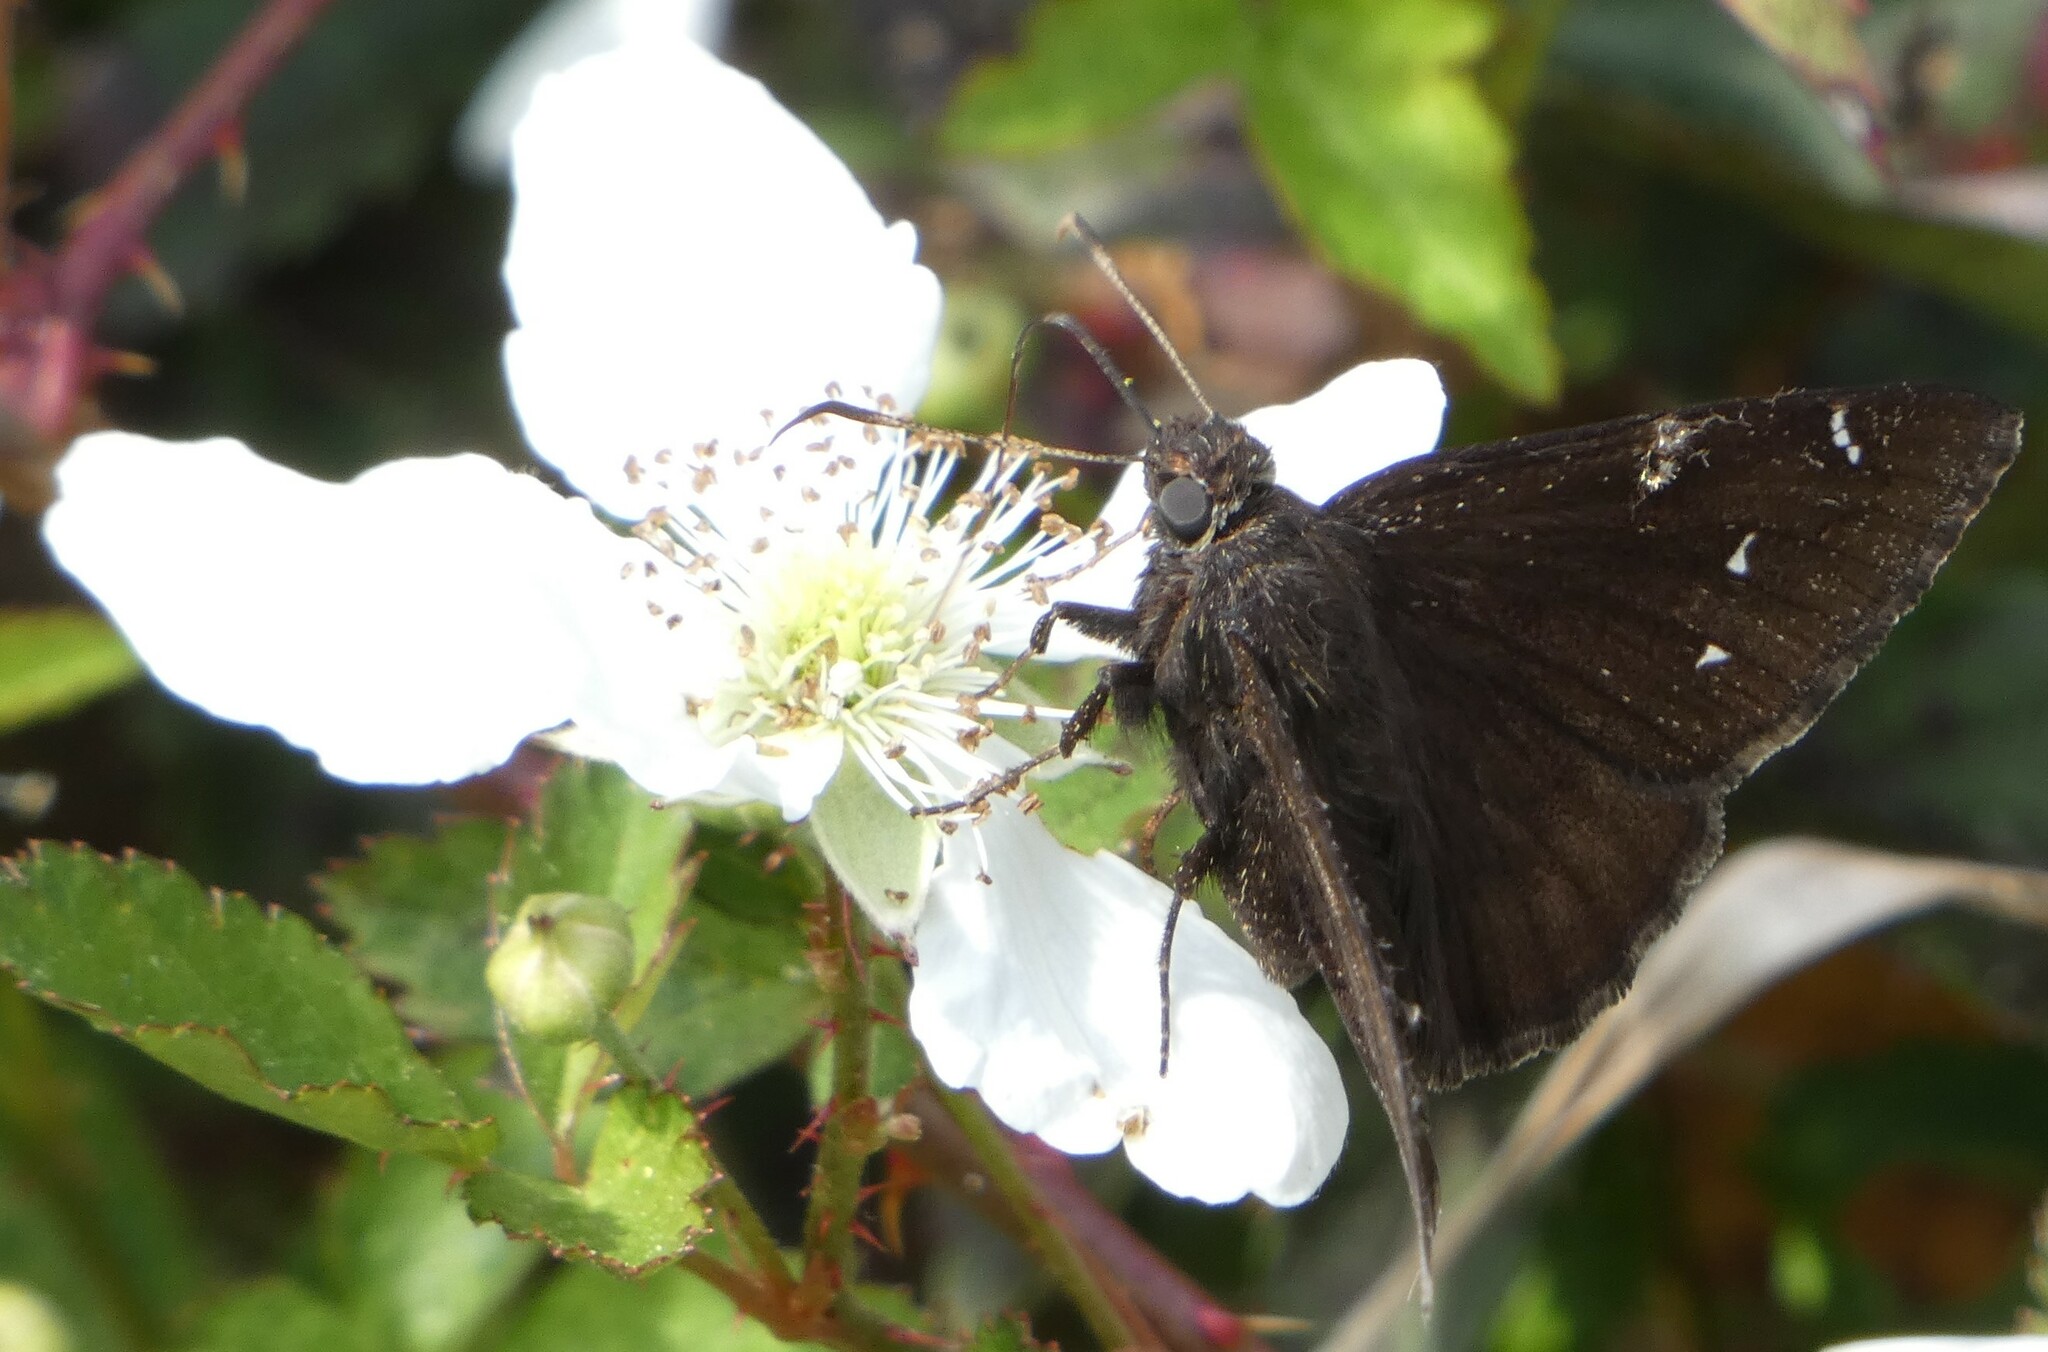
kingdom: Animalia
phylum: Arthropoda
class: Insecta
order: Lepidoptera
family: Hesperiidae
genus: Thorybes
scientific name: Thorybes pylades
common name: Northern cloudywing
